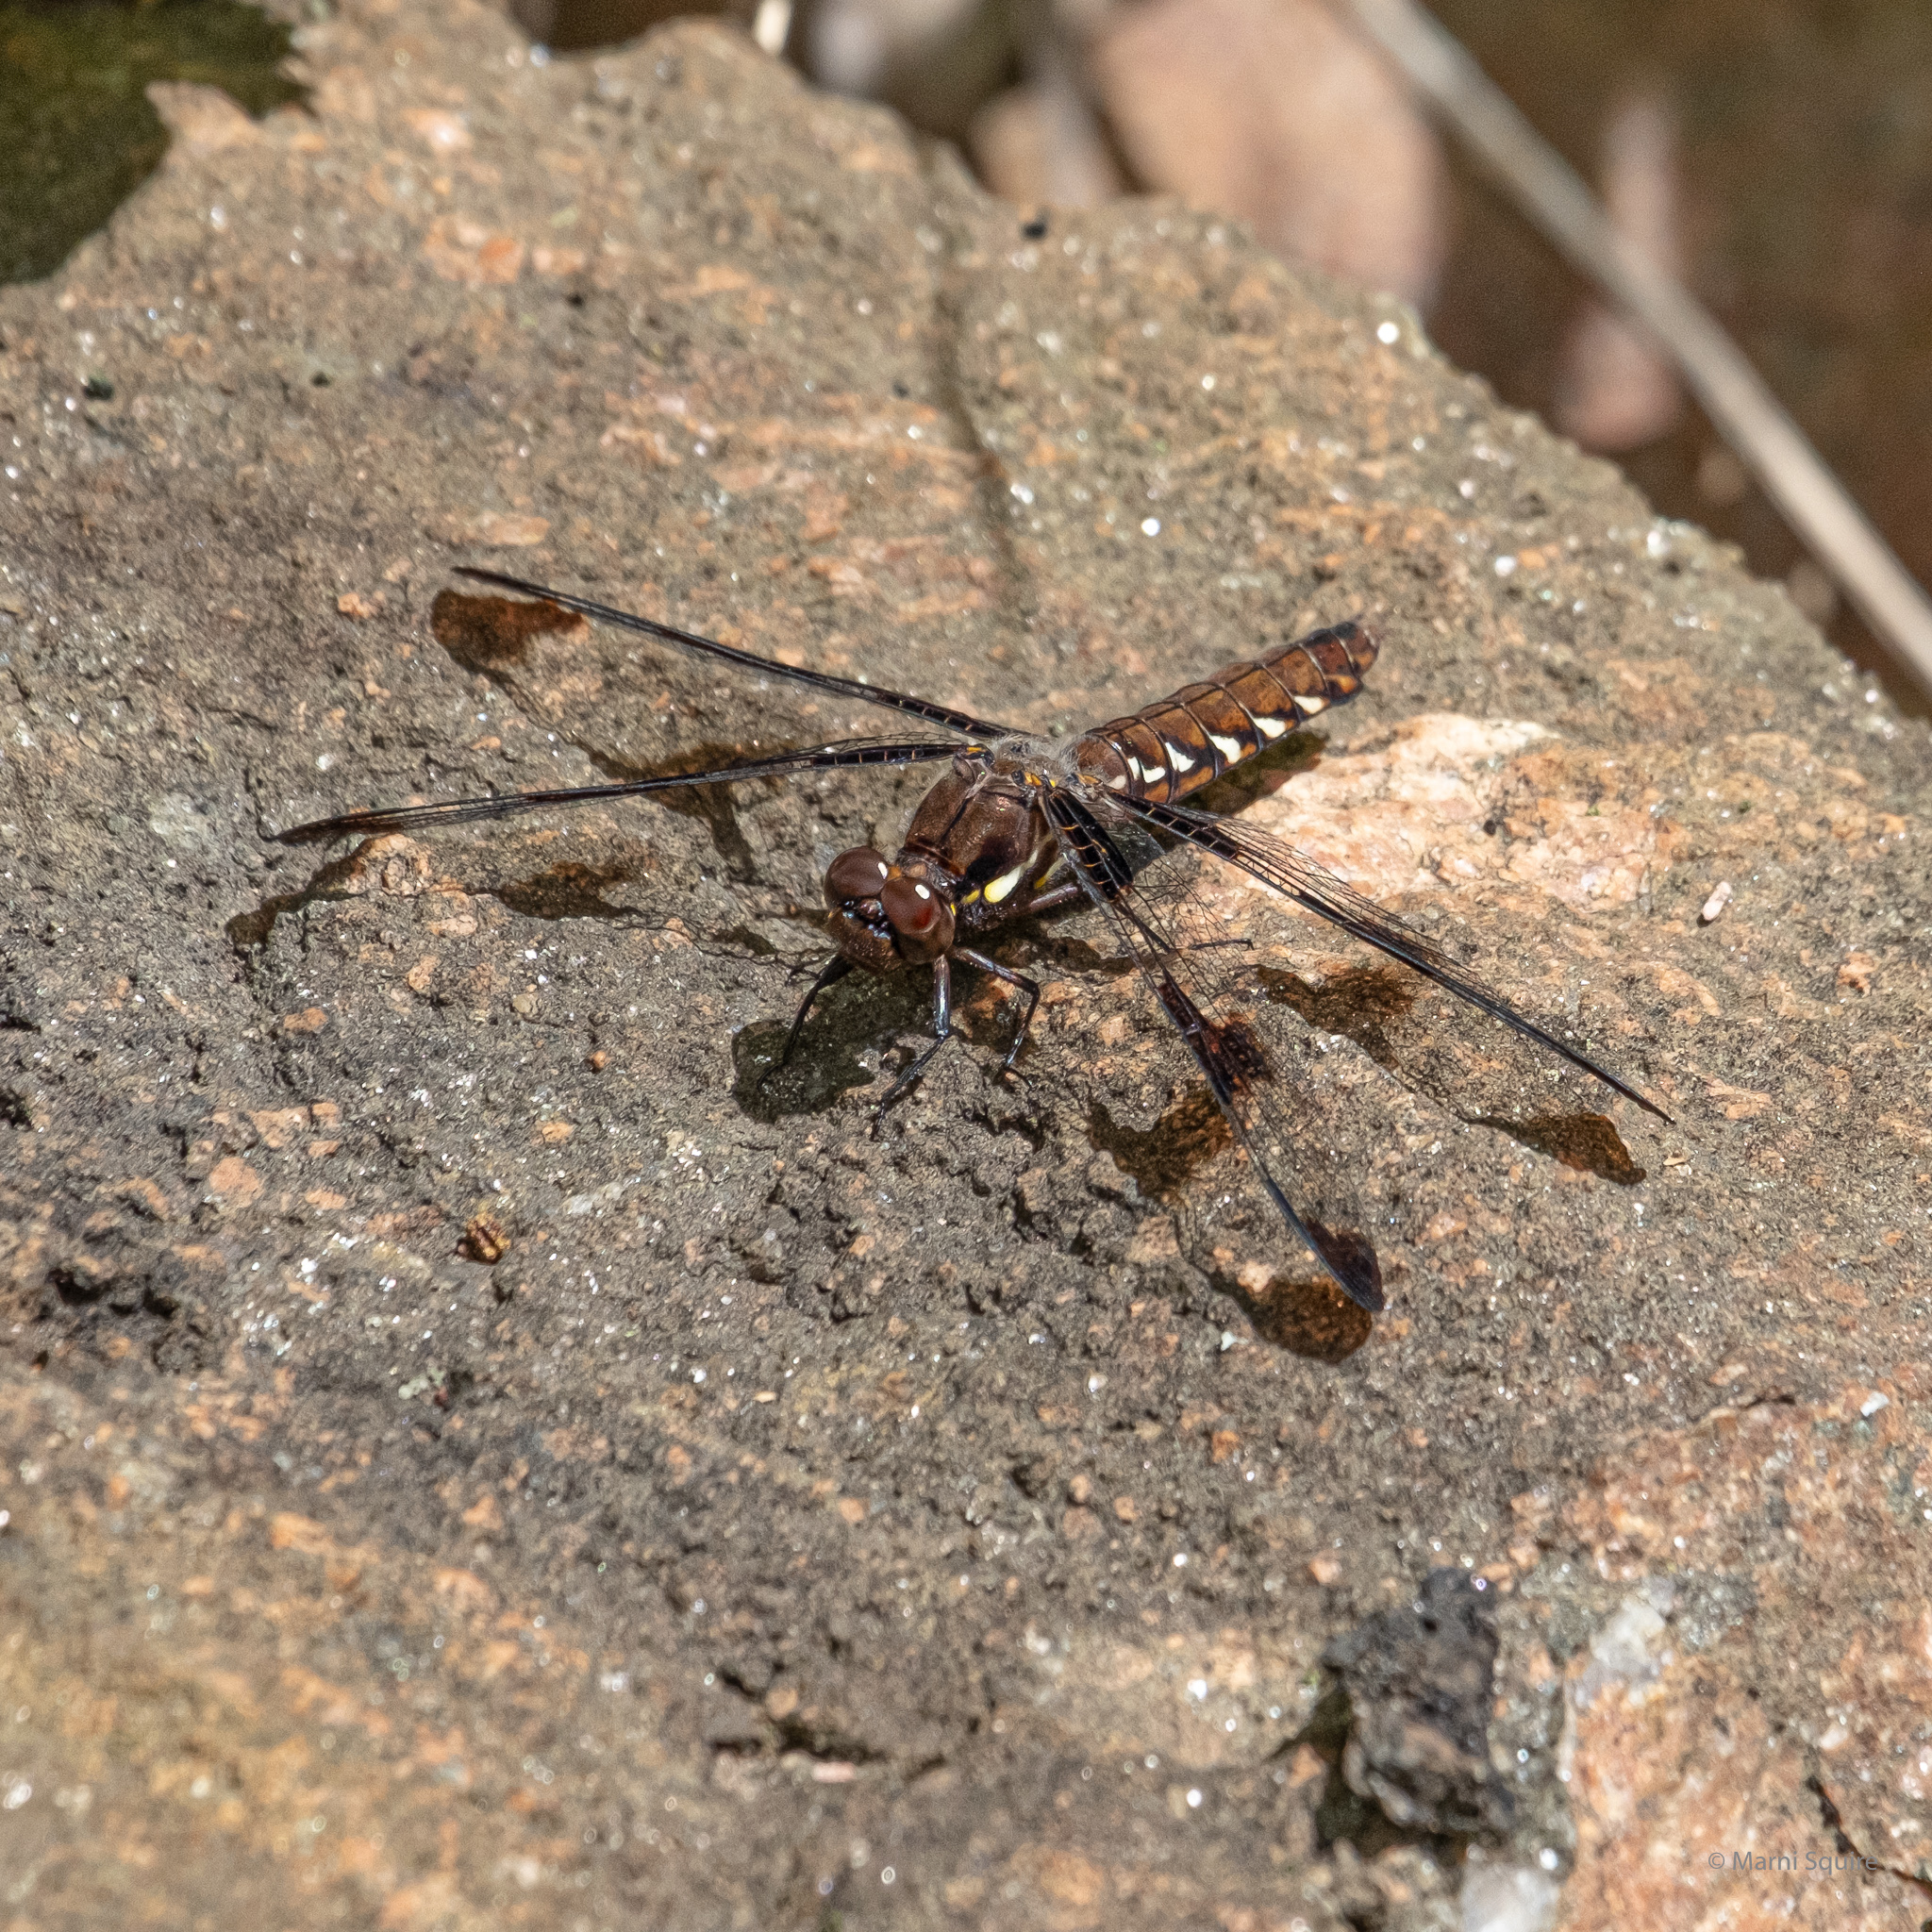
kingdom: Animalia
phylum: Arthropoda
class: Insecta
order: Odonata
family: Libellulidae
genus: Plathemis
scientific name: Plathemis lydia
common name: Common whitetail
